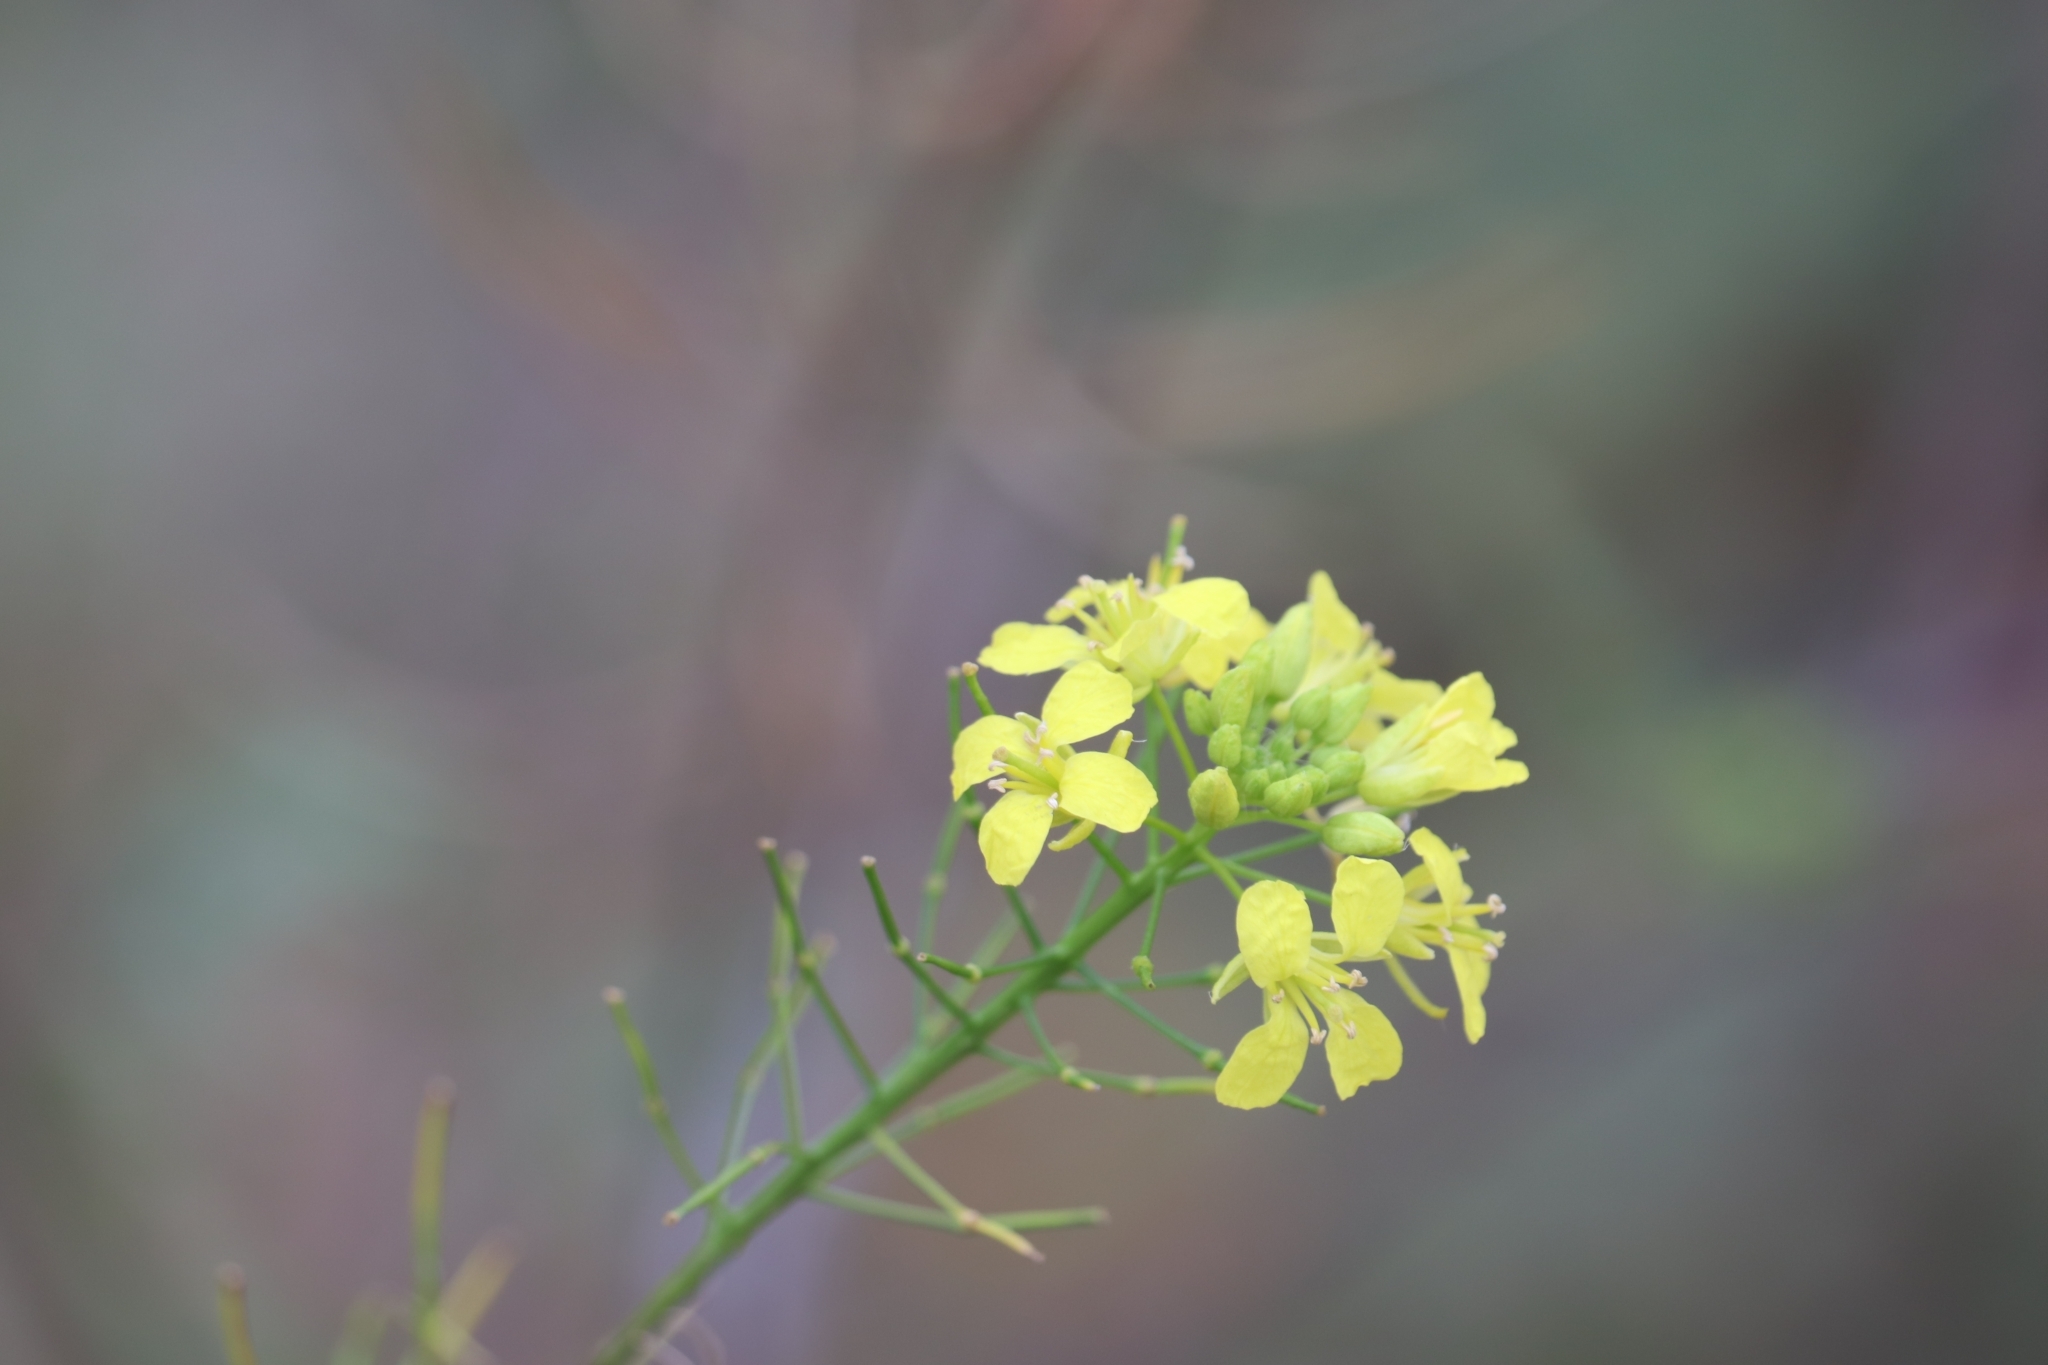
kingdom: Plantae
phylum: Tracheophyta
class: Magnoliopsida
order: Brassicales
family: Brassicaceae
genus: Sisymbrium
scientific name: Sisymbrium loeselii
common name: False london-rocket
